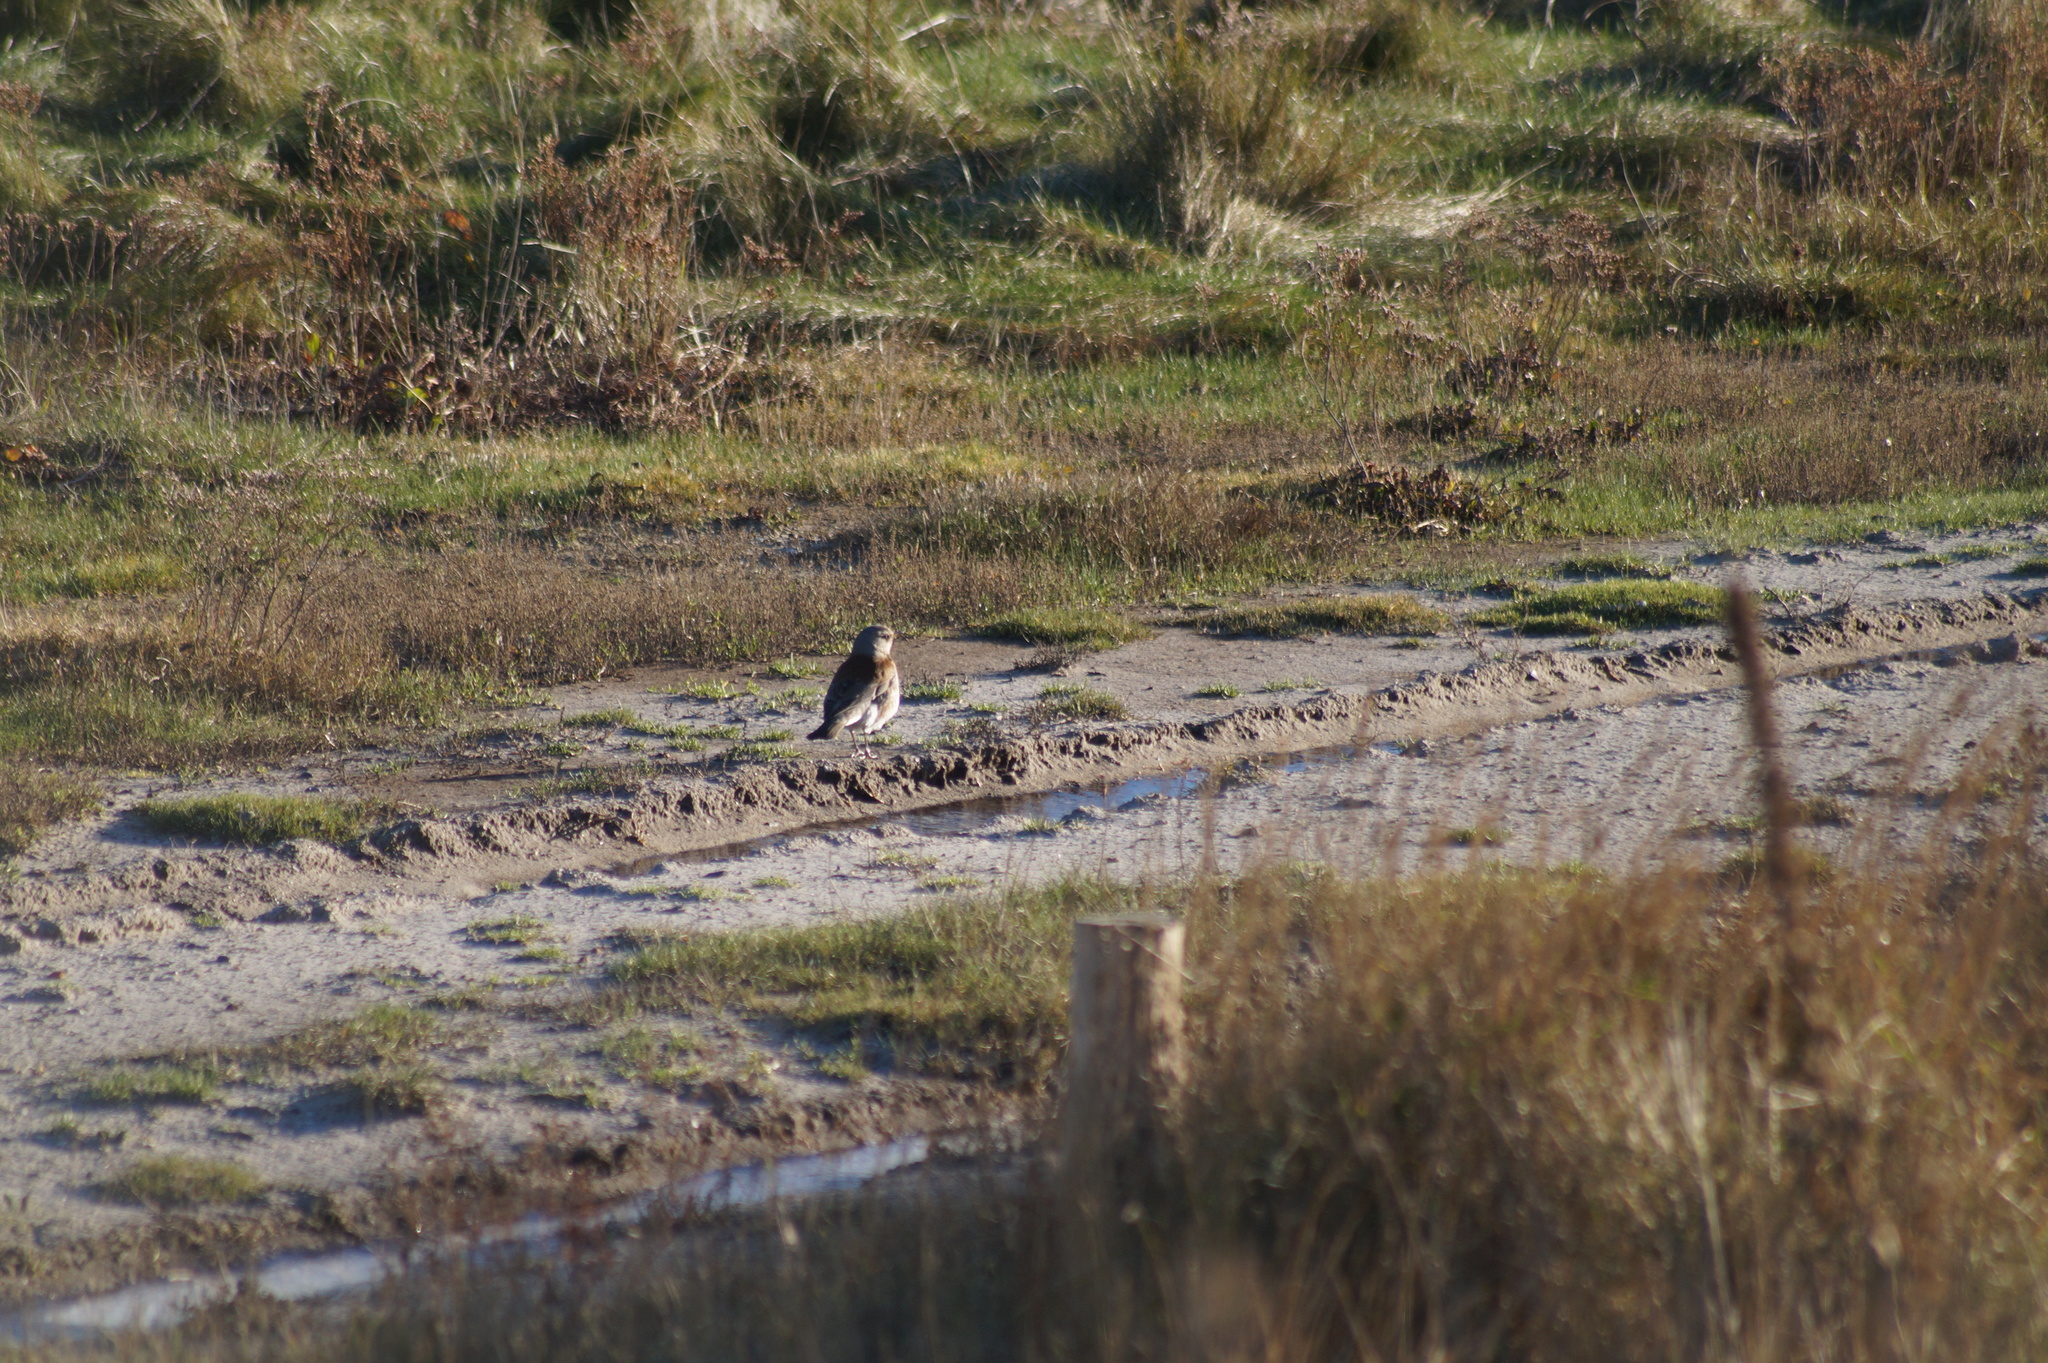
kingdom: Animalia
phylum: Chordata
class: Aves
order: Passeriformes
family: Turdidae
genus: Turdus
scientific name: Turdus pilaris
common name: Fieldfare
